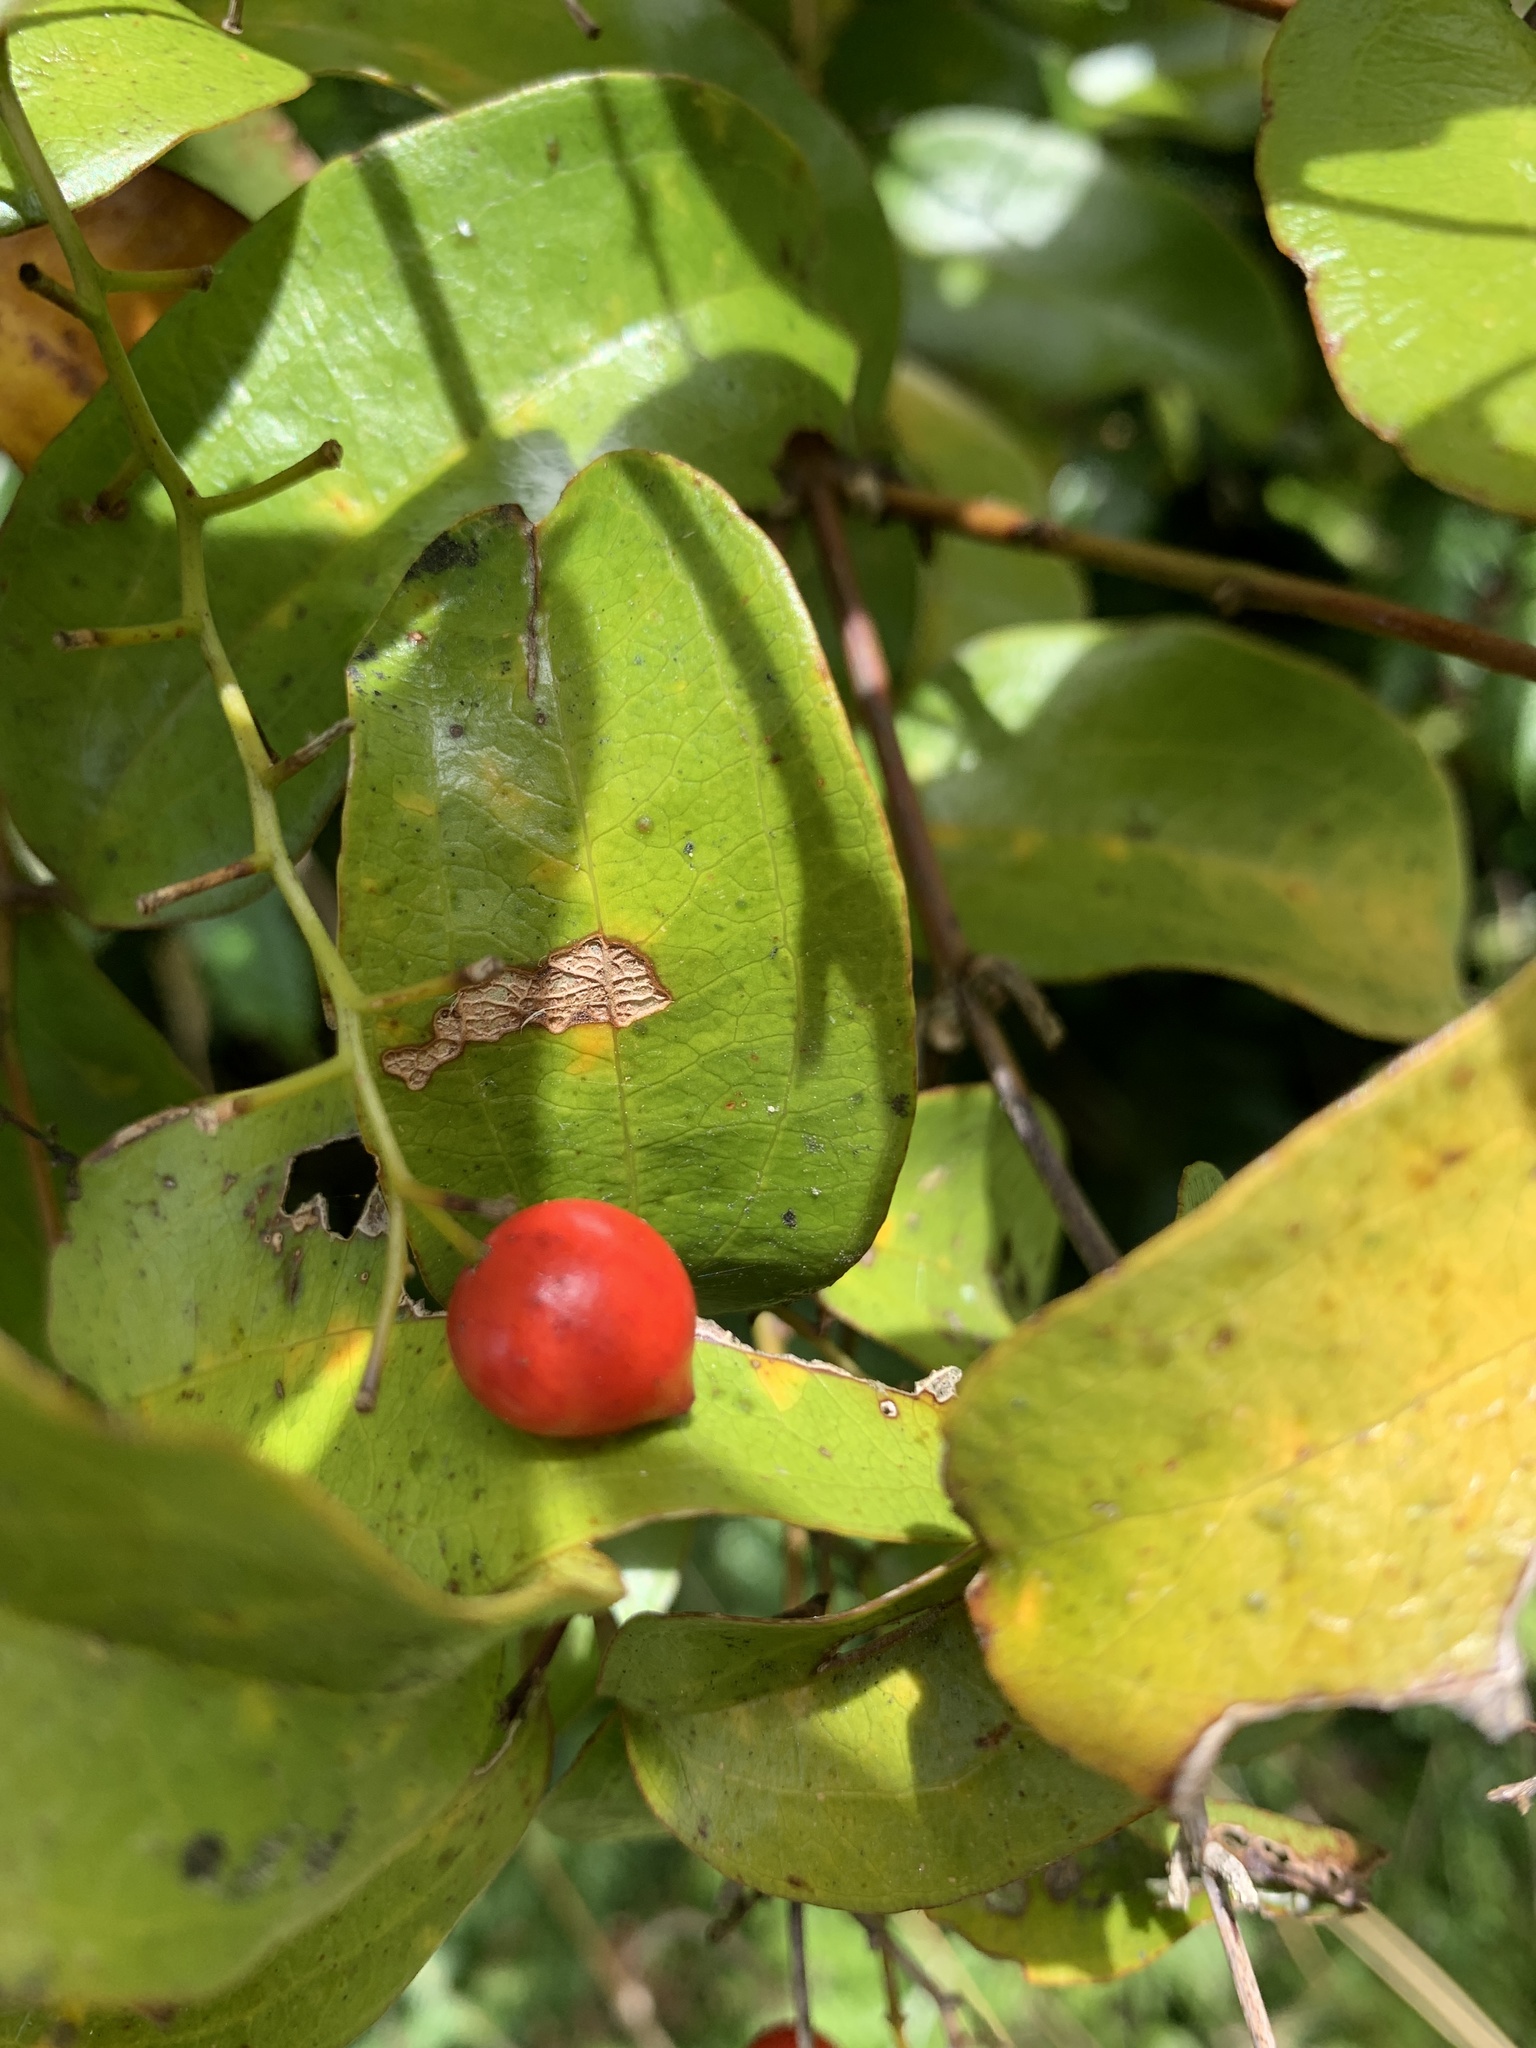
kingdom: Plantae
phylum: Tracheophyta
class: Liliopsida
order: Liliales
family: Ripogonaceae
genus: Ripogonum
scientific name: Ripogonum scandens
